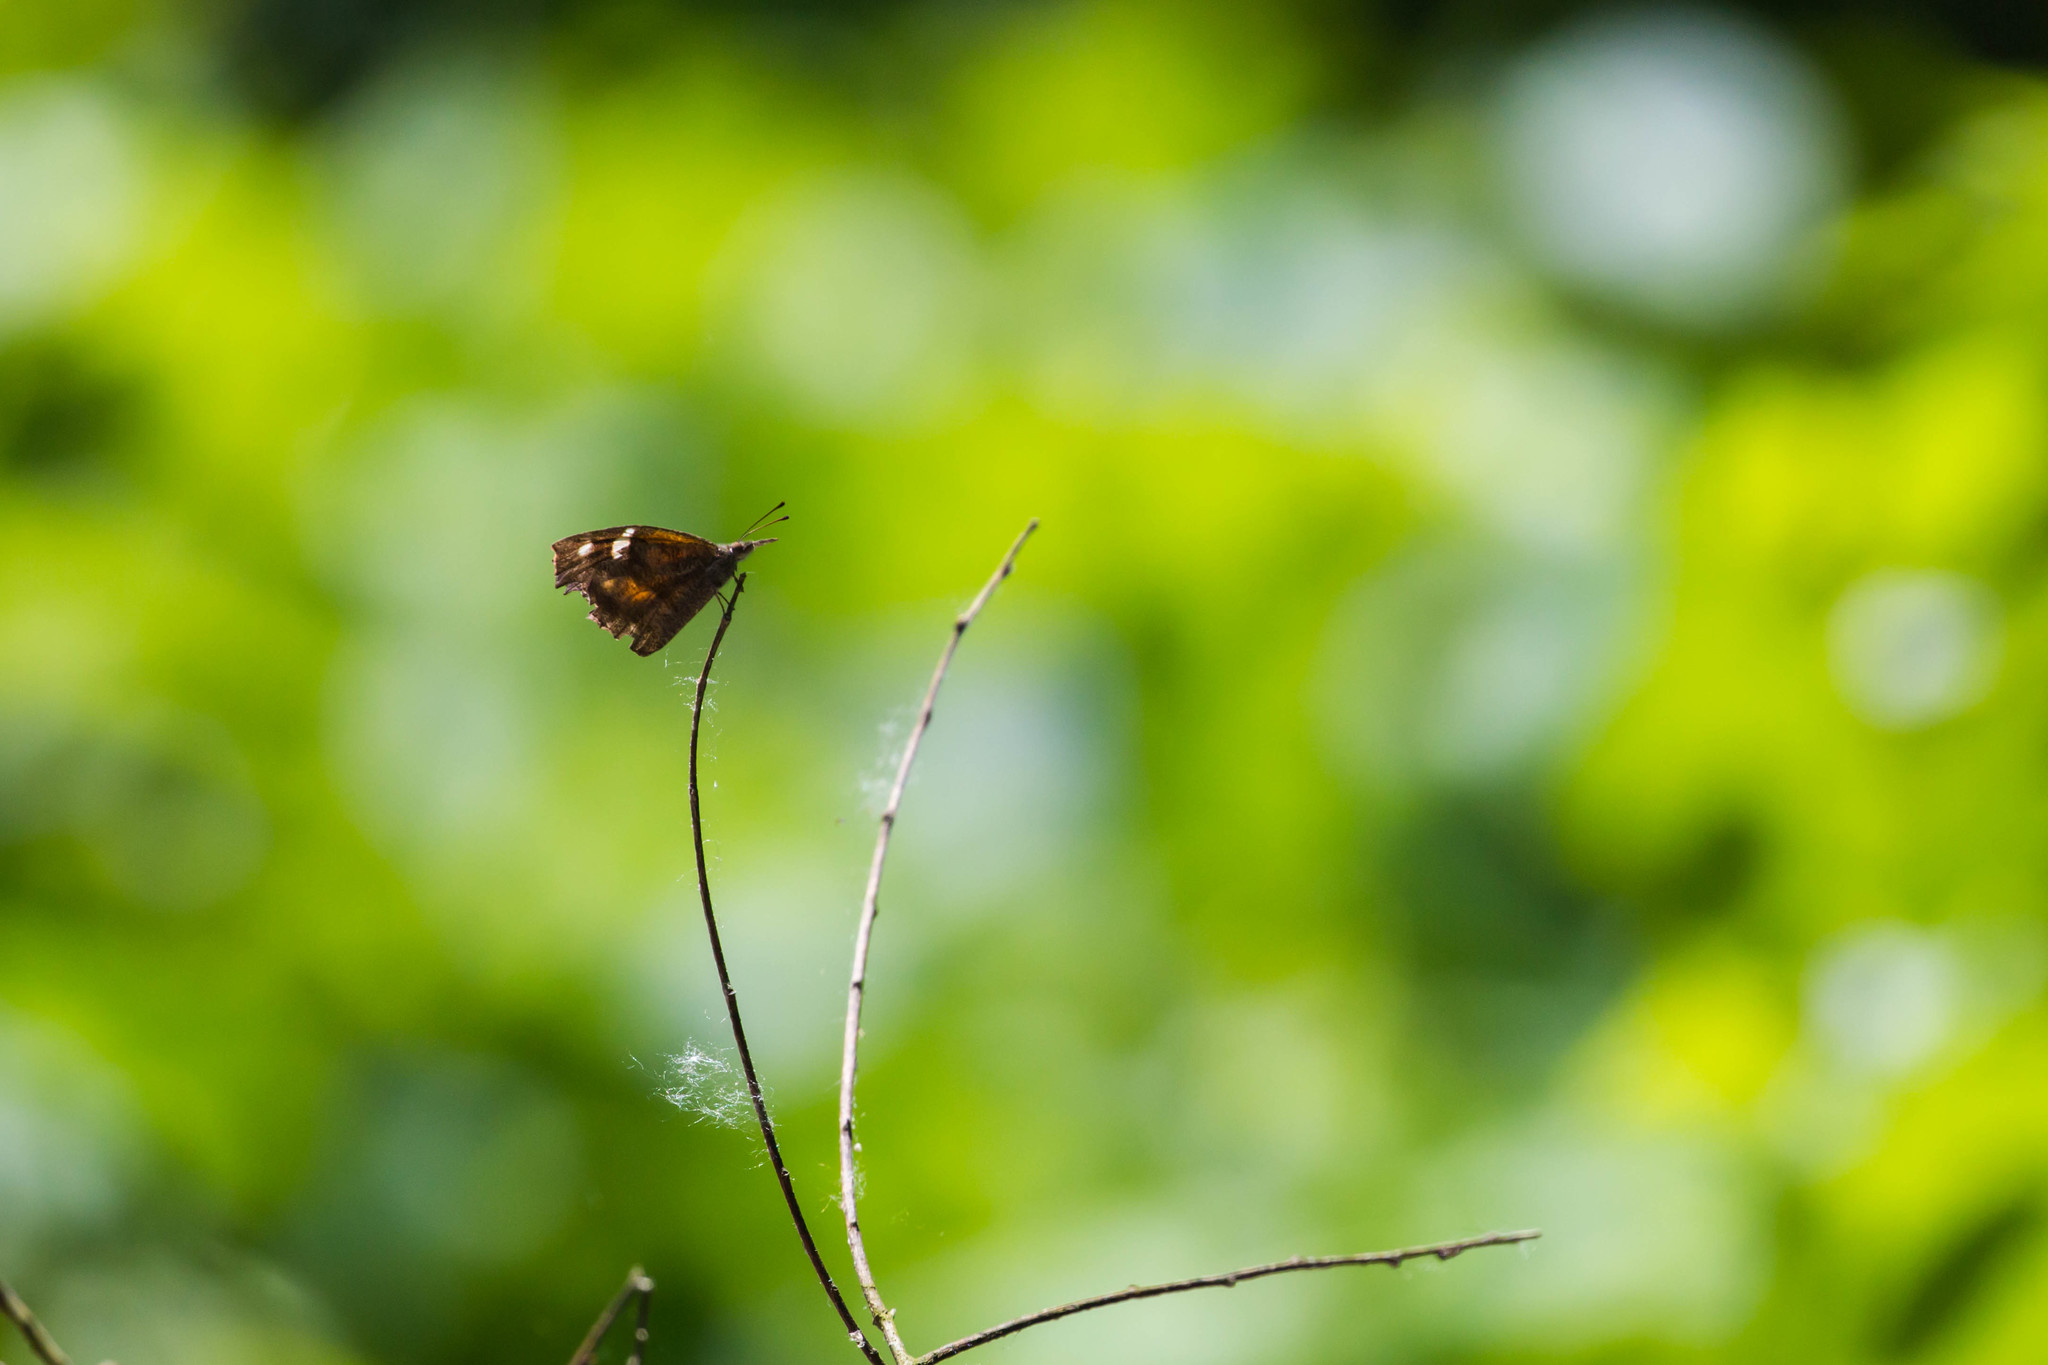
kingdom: Animalia
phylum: Arthropoda
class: Insecta
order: Lepidoptera
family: Nymphalidae
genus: Libytheana
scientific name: Libytheana carinenta
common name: American snout
